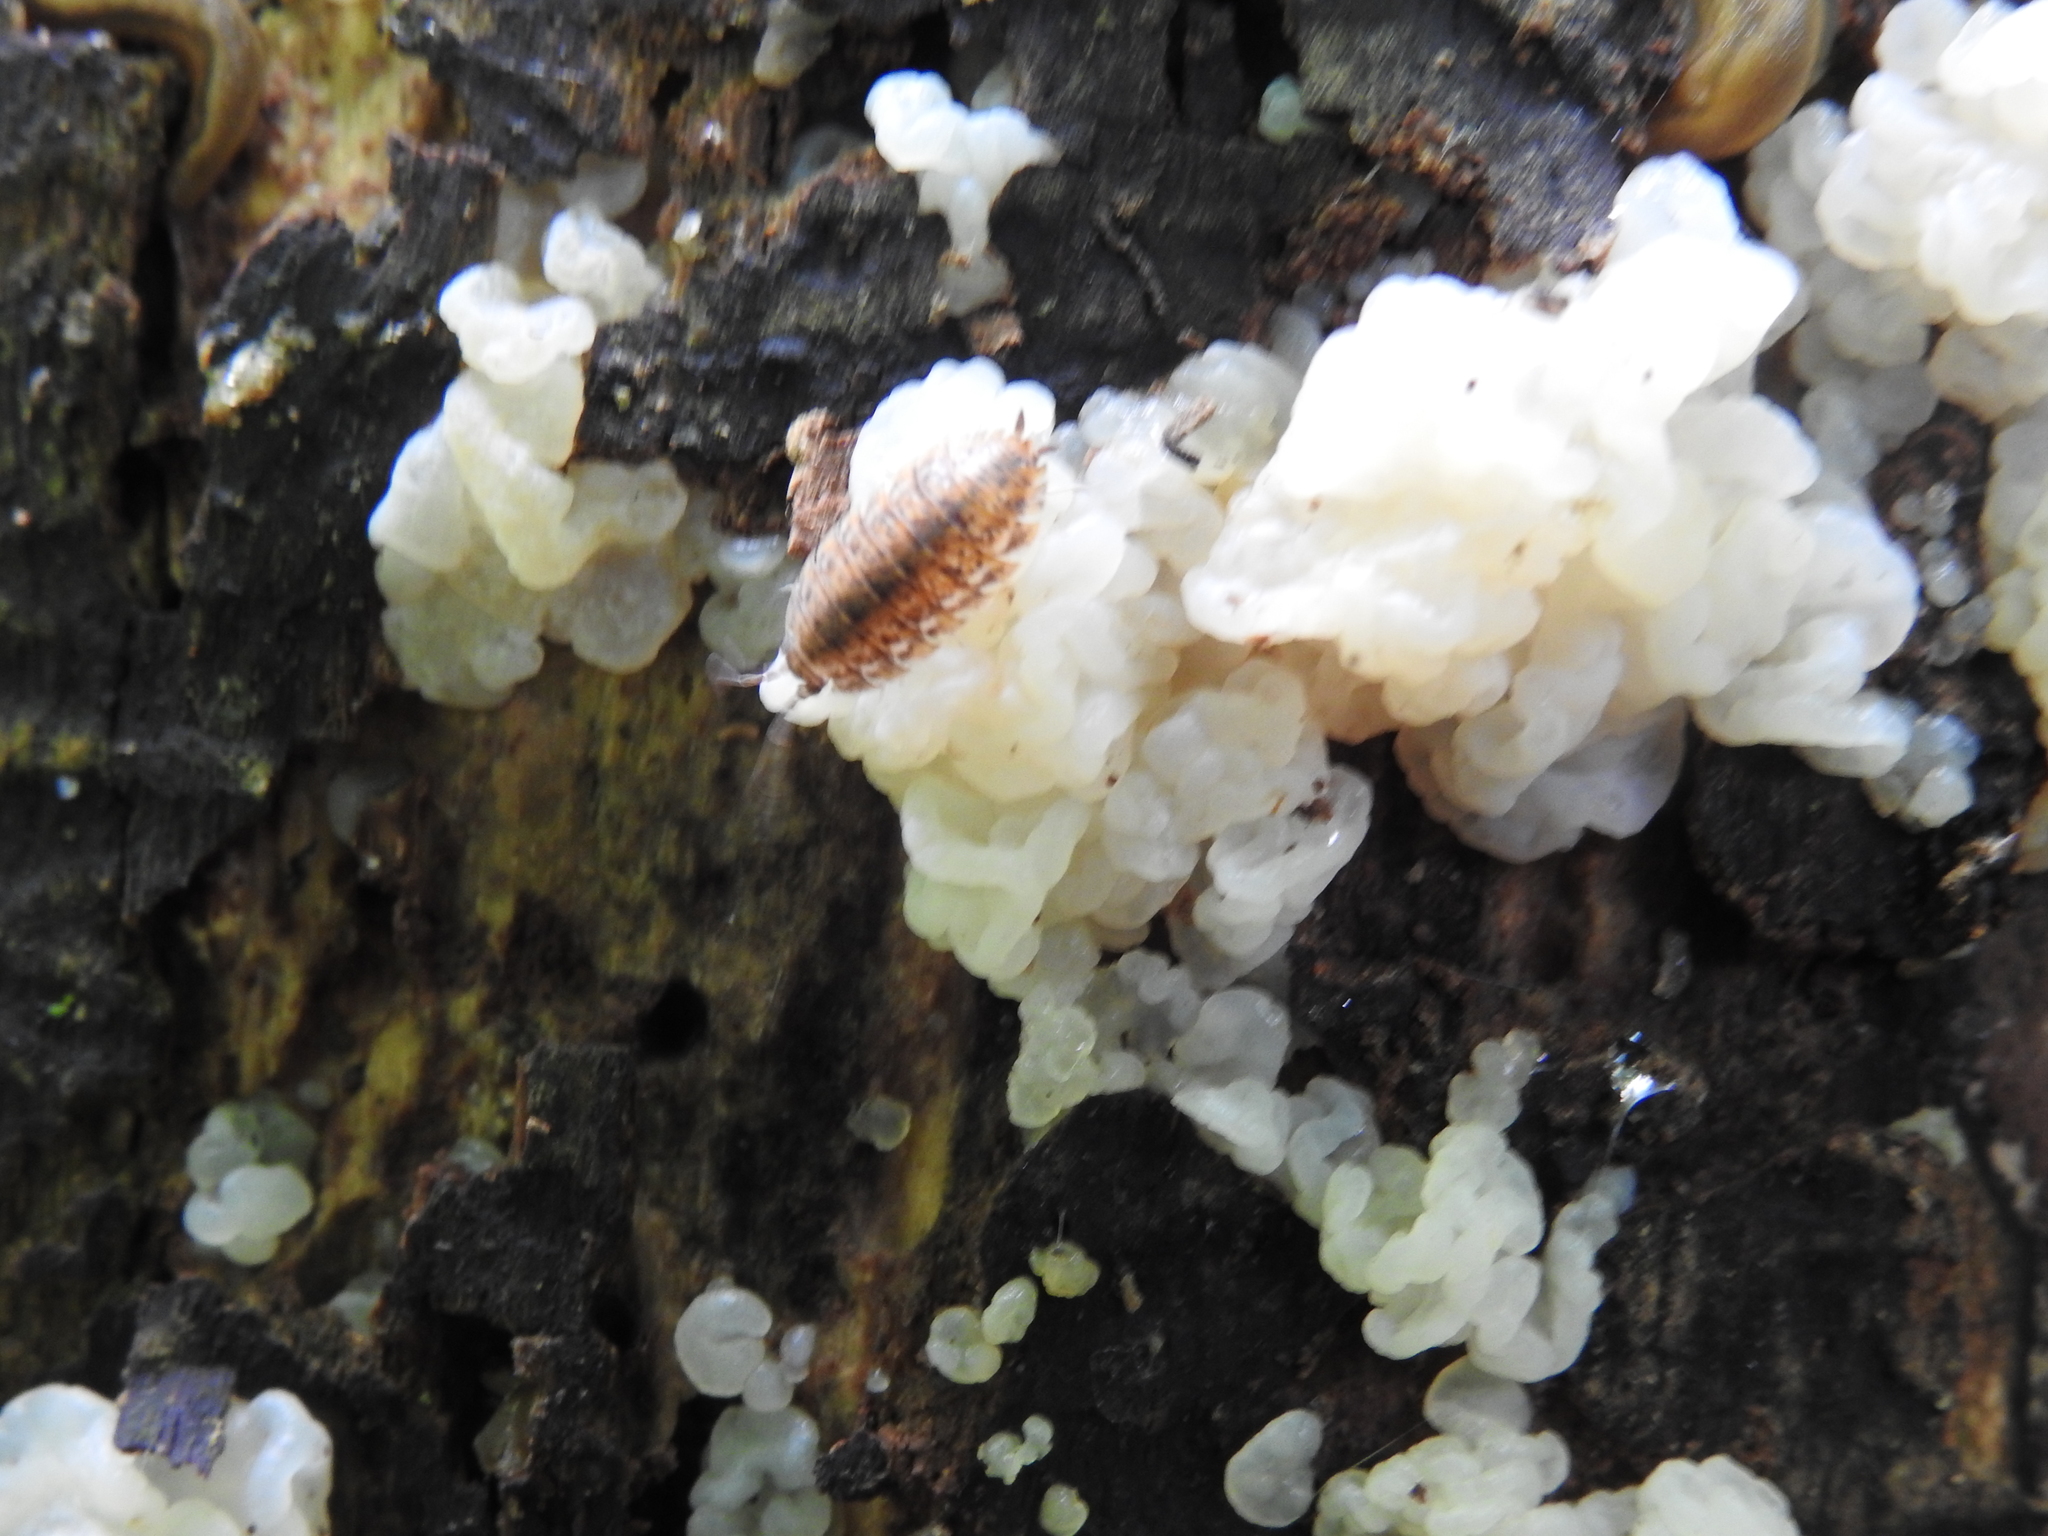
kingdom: Animalia
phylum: Arthropoda
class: Malacostraca
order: Isopoda
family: Trachelipodidae
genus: Trachelipus
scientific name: Trachelipus rathkii
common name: Isopod
